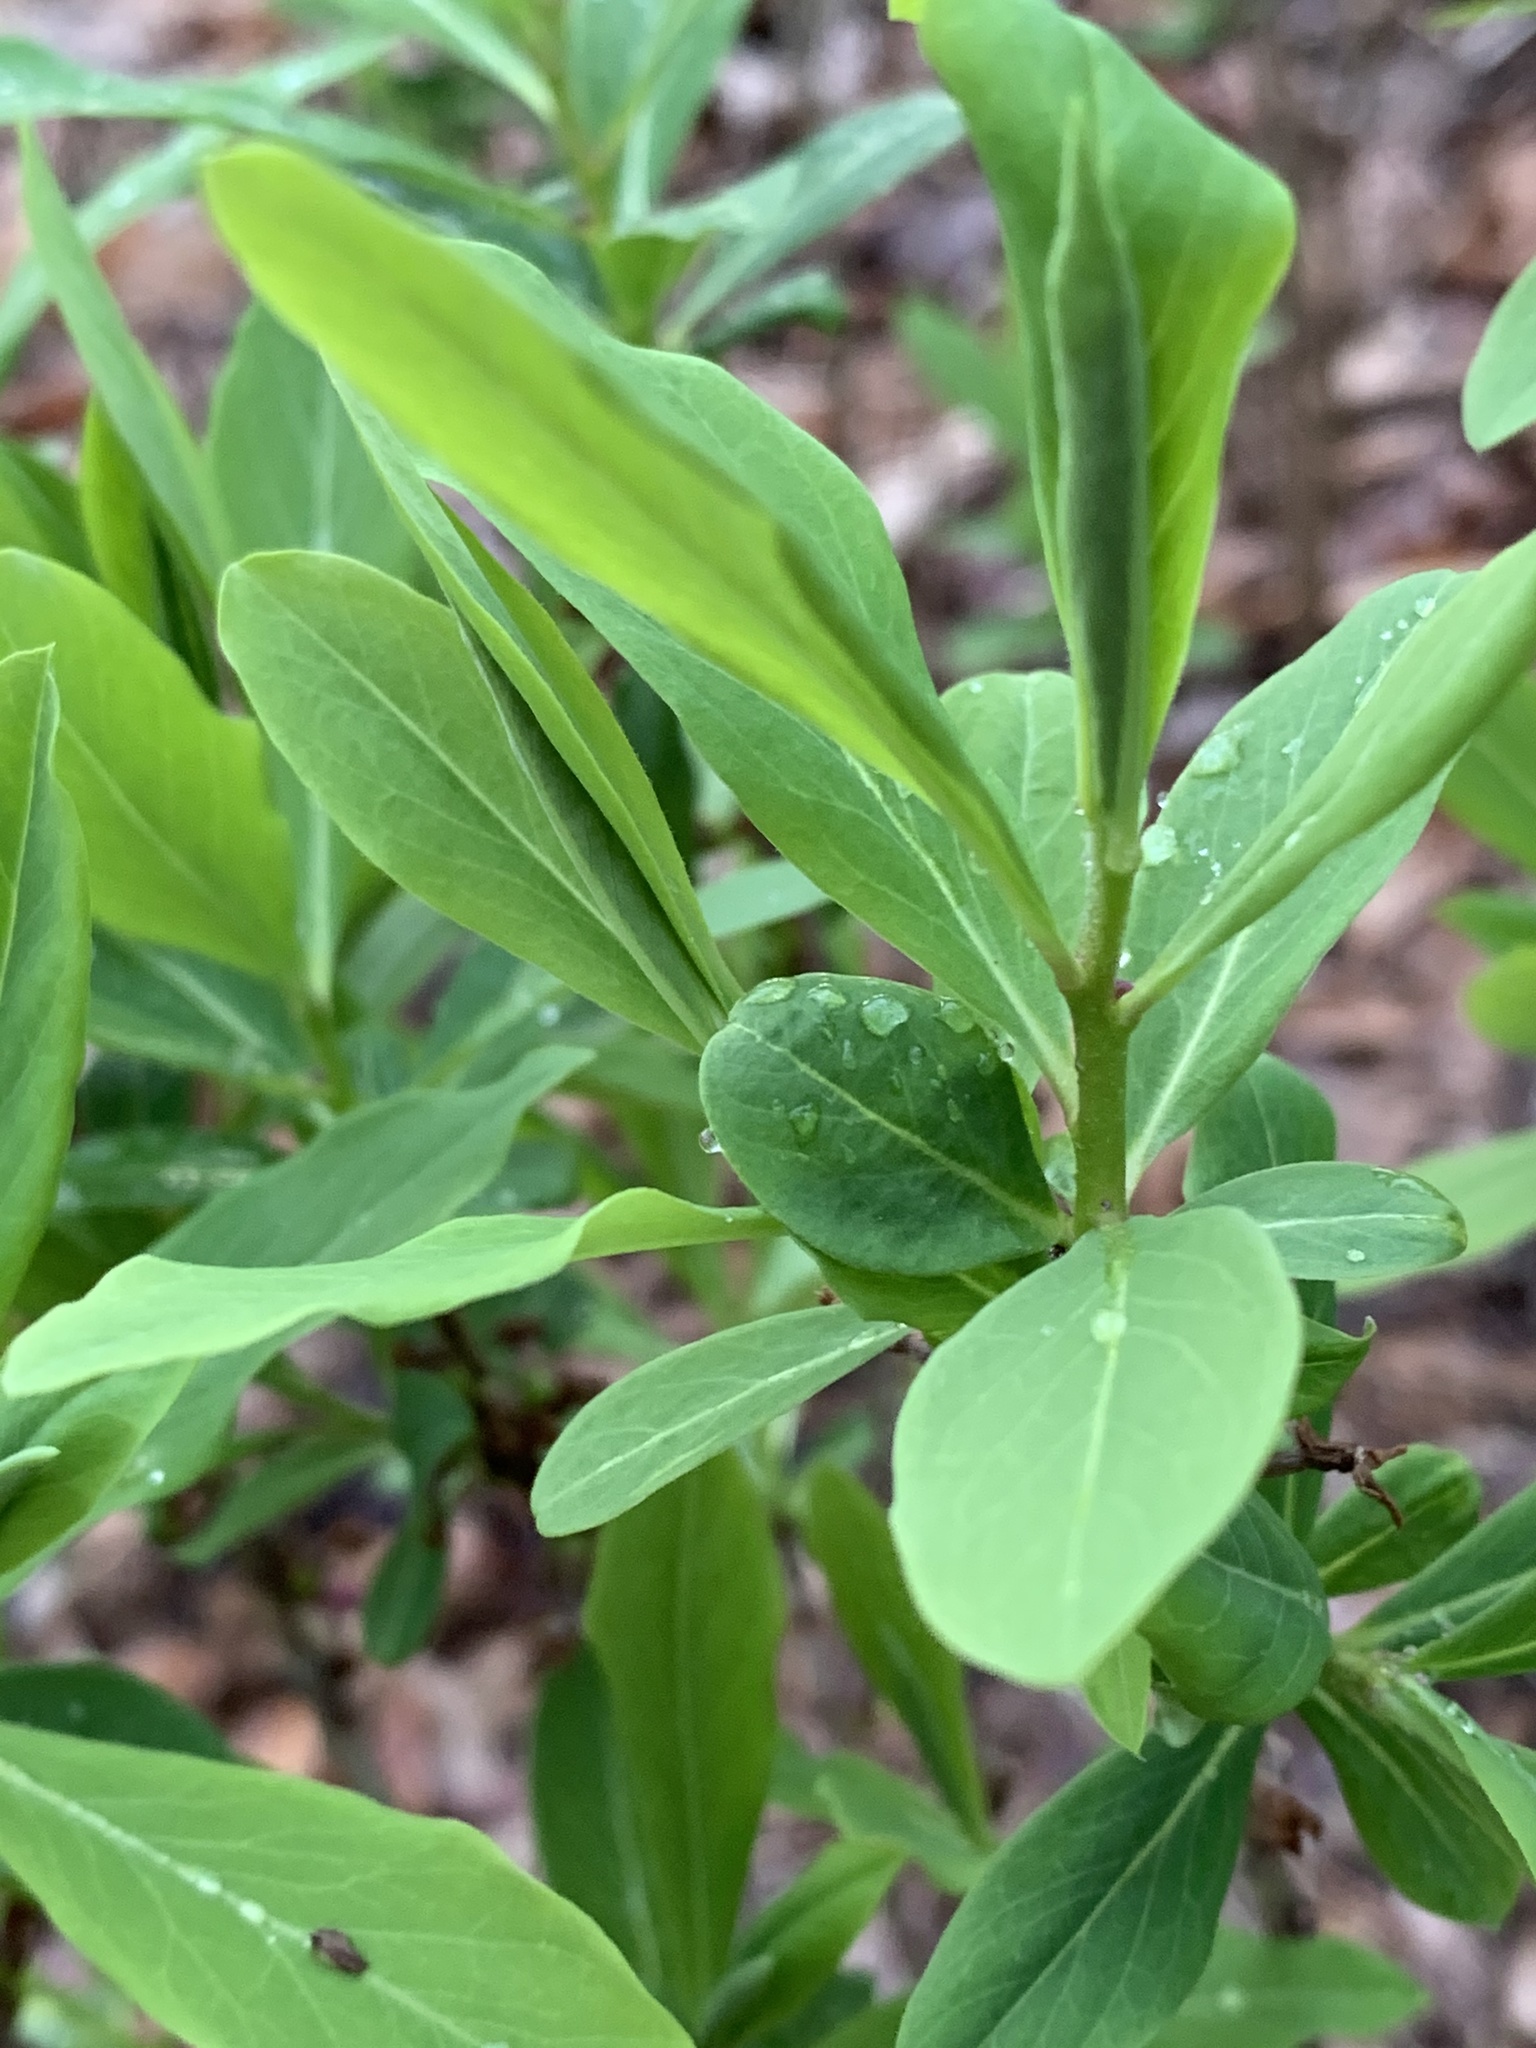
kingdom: Plantae
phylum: Tracheophyta
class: Magnoliopsida
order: Malvales
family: Thymelaeaceae
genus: Daphne
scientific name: Daphne mezereum
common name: Mezereon
